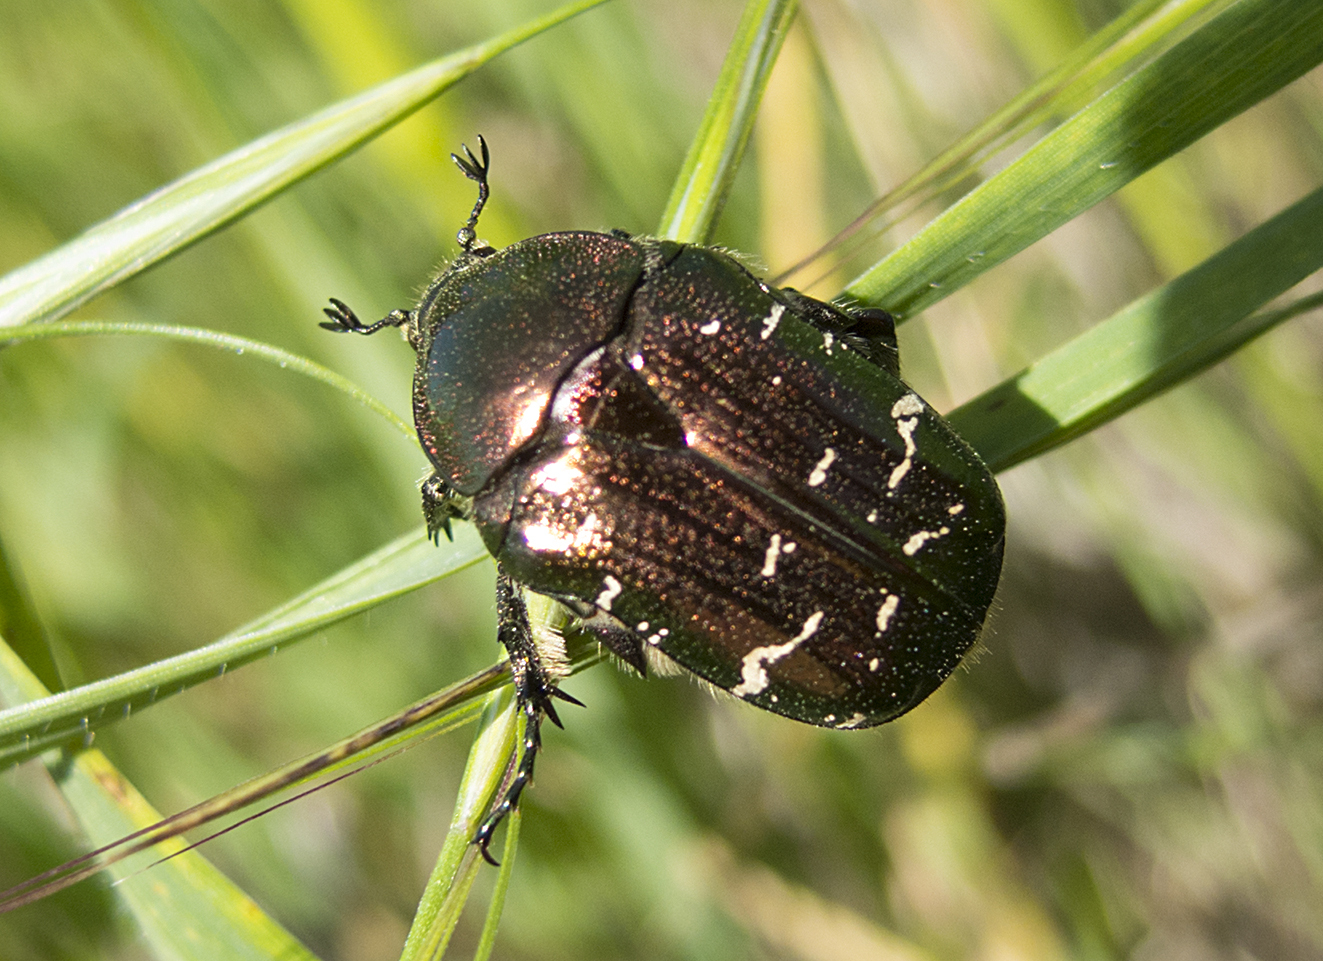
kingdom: Animalia
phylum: Arthropoda
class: Insecta
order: Coleoptera
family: Scarabaeidae
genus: Cetonia
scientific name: Cetonia aurata
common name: Rose chafer
